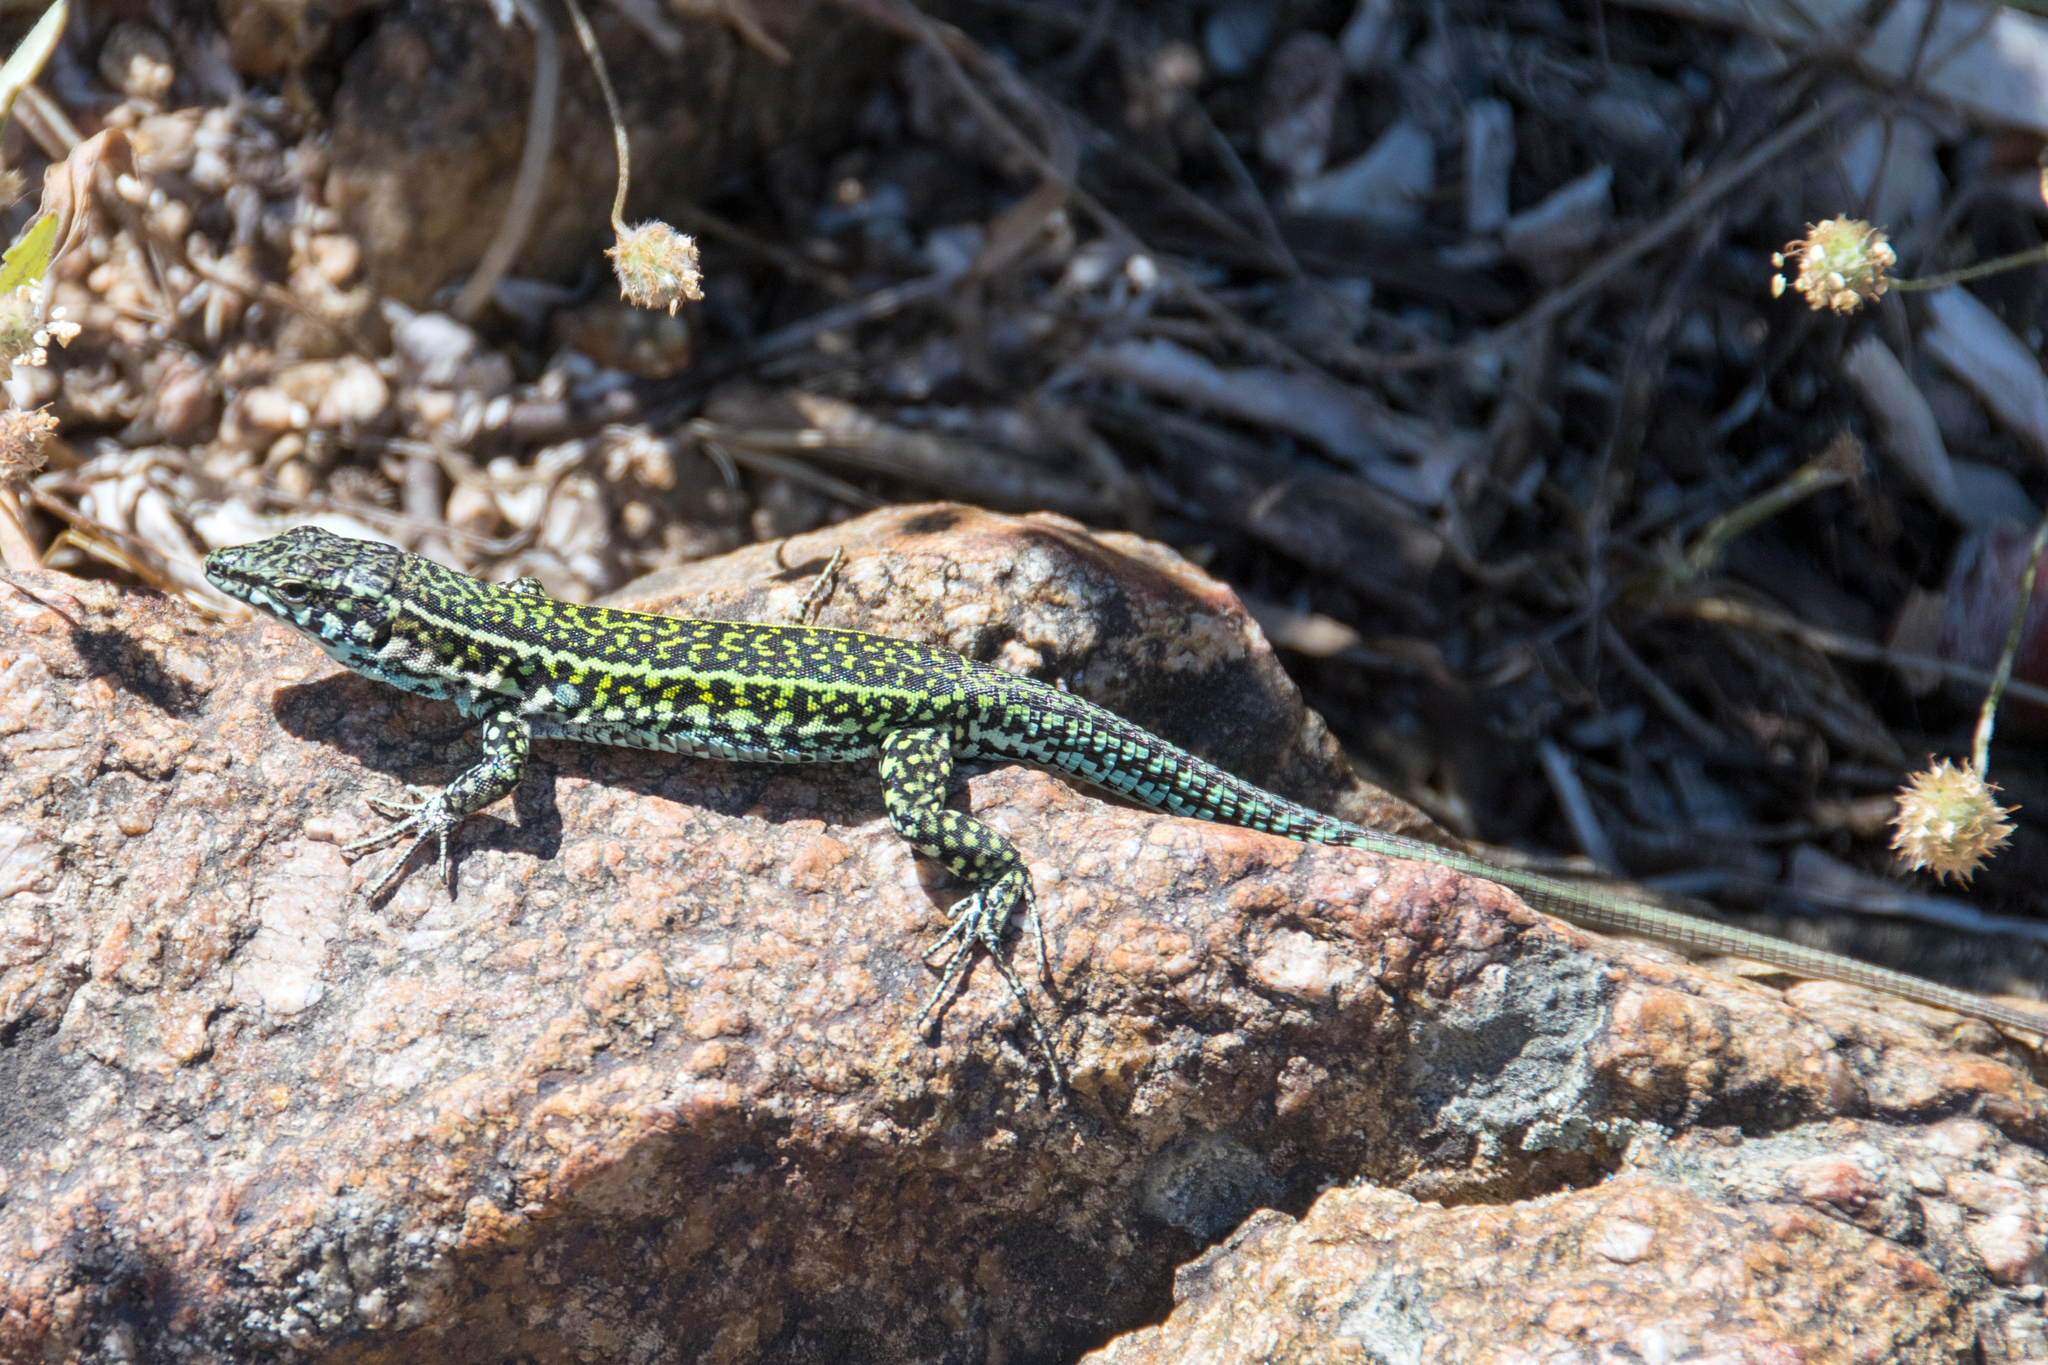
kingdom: Animalia
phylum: Chordata
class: Squamata
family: Lacertidae
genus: Podarcis
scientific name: Podarcis tiliguerta
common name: Tyrrhenian wall lizard
